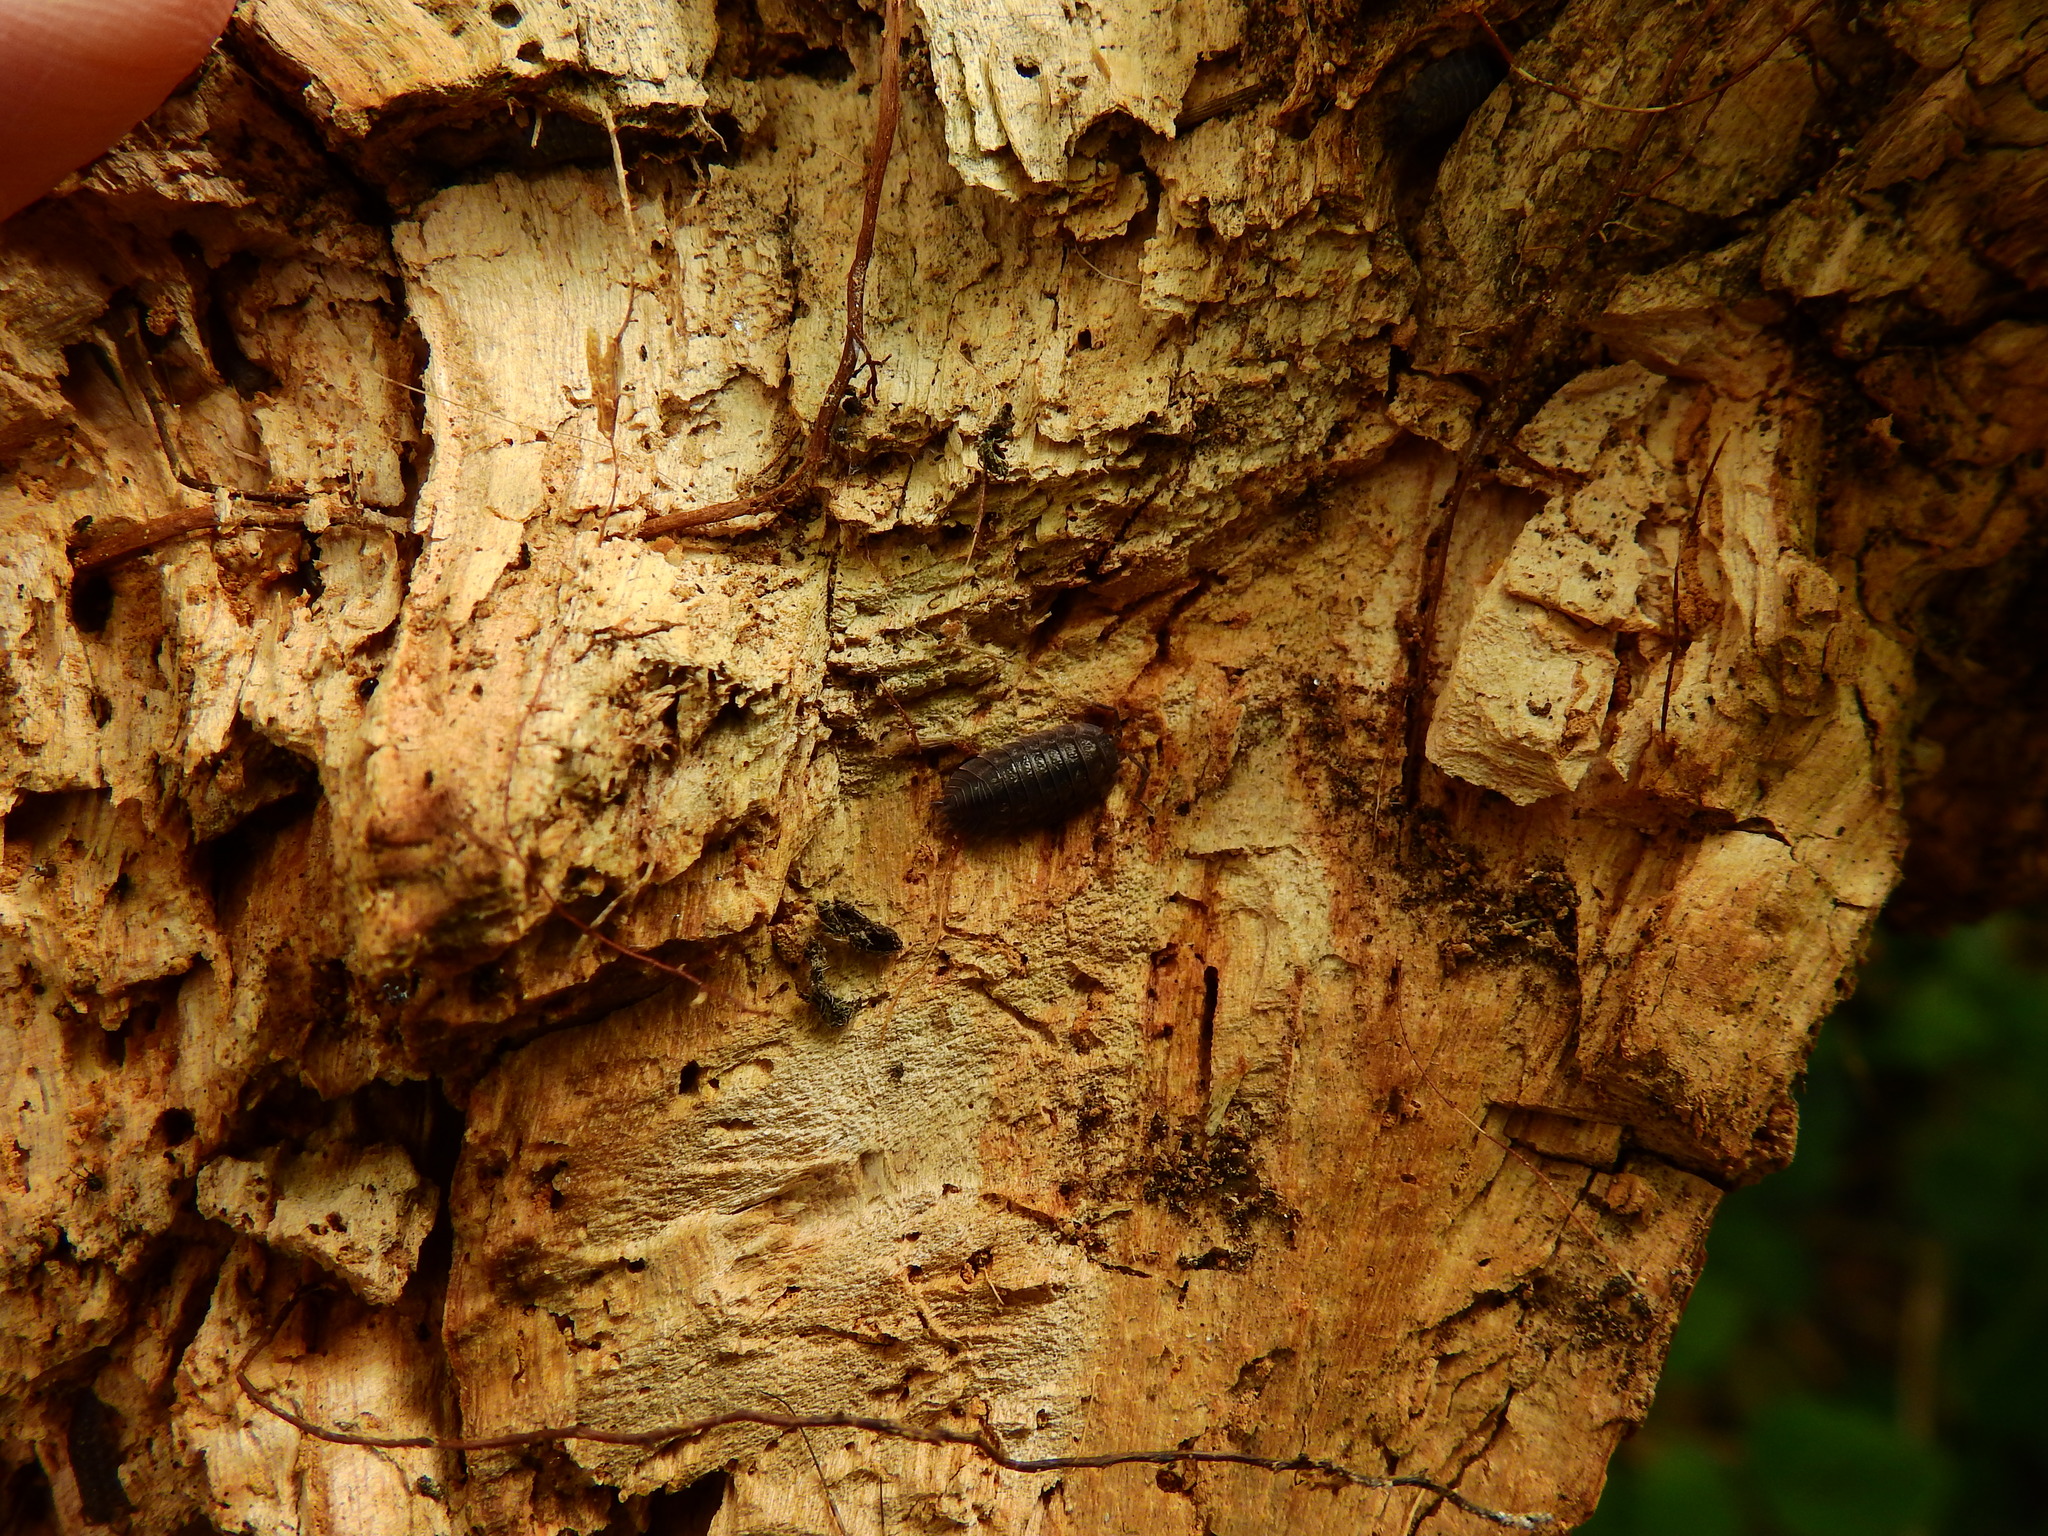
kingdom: Animalia
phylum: Arthropoda
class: Malacostraca
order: Isopoda
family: Porcellionidae
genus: Porcellio
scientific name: Porcellio scaber
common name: Common rough woodlouse
